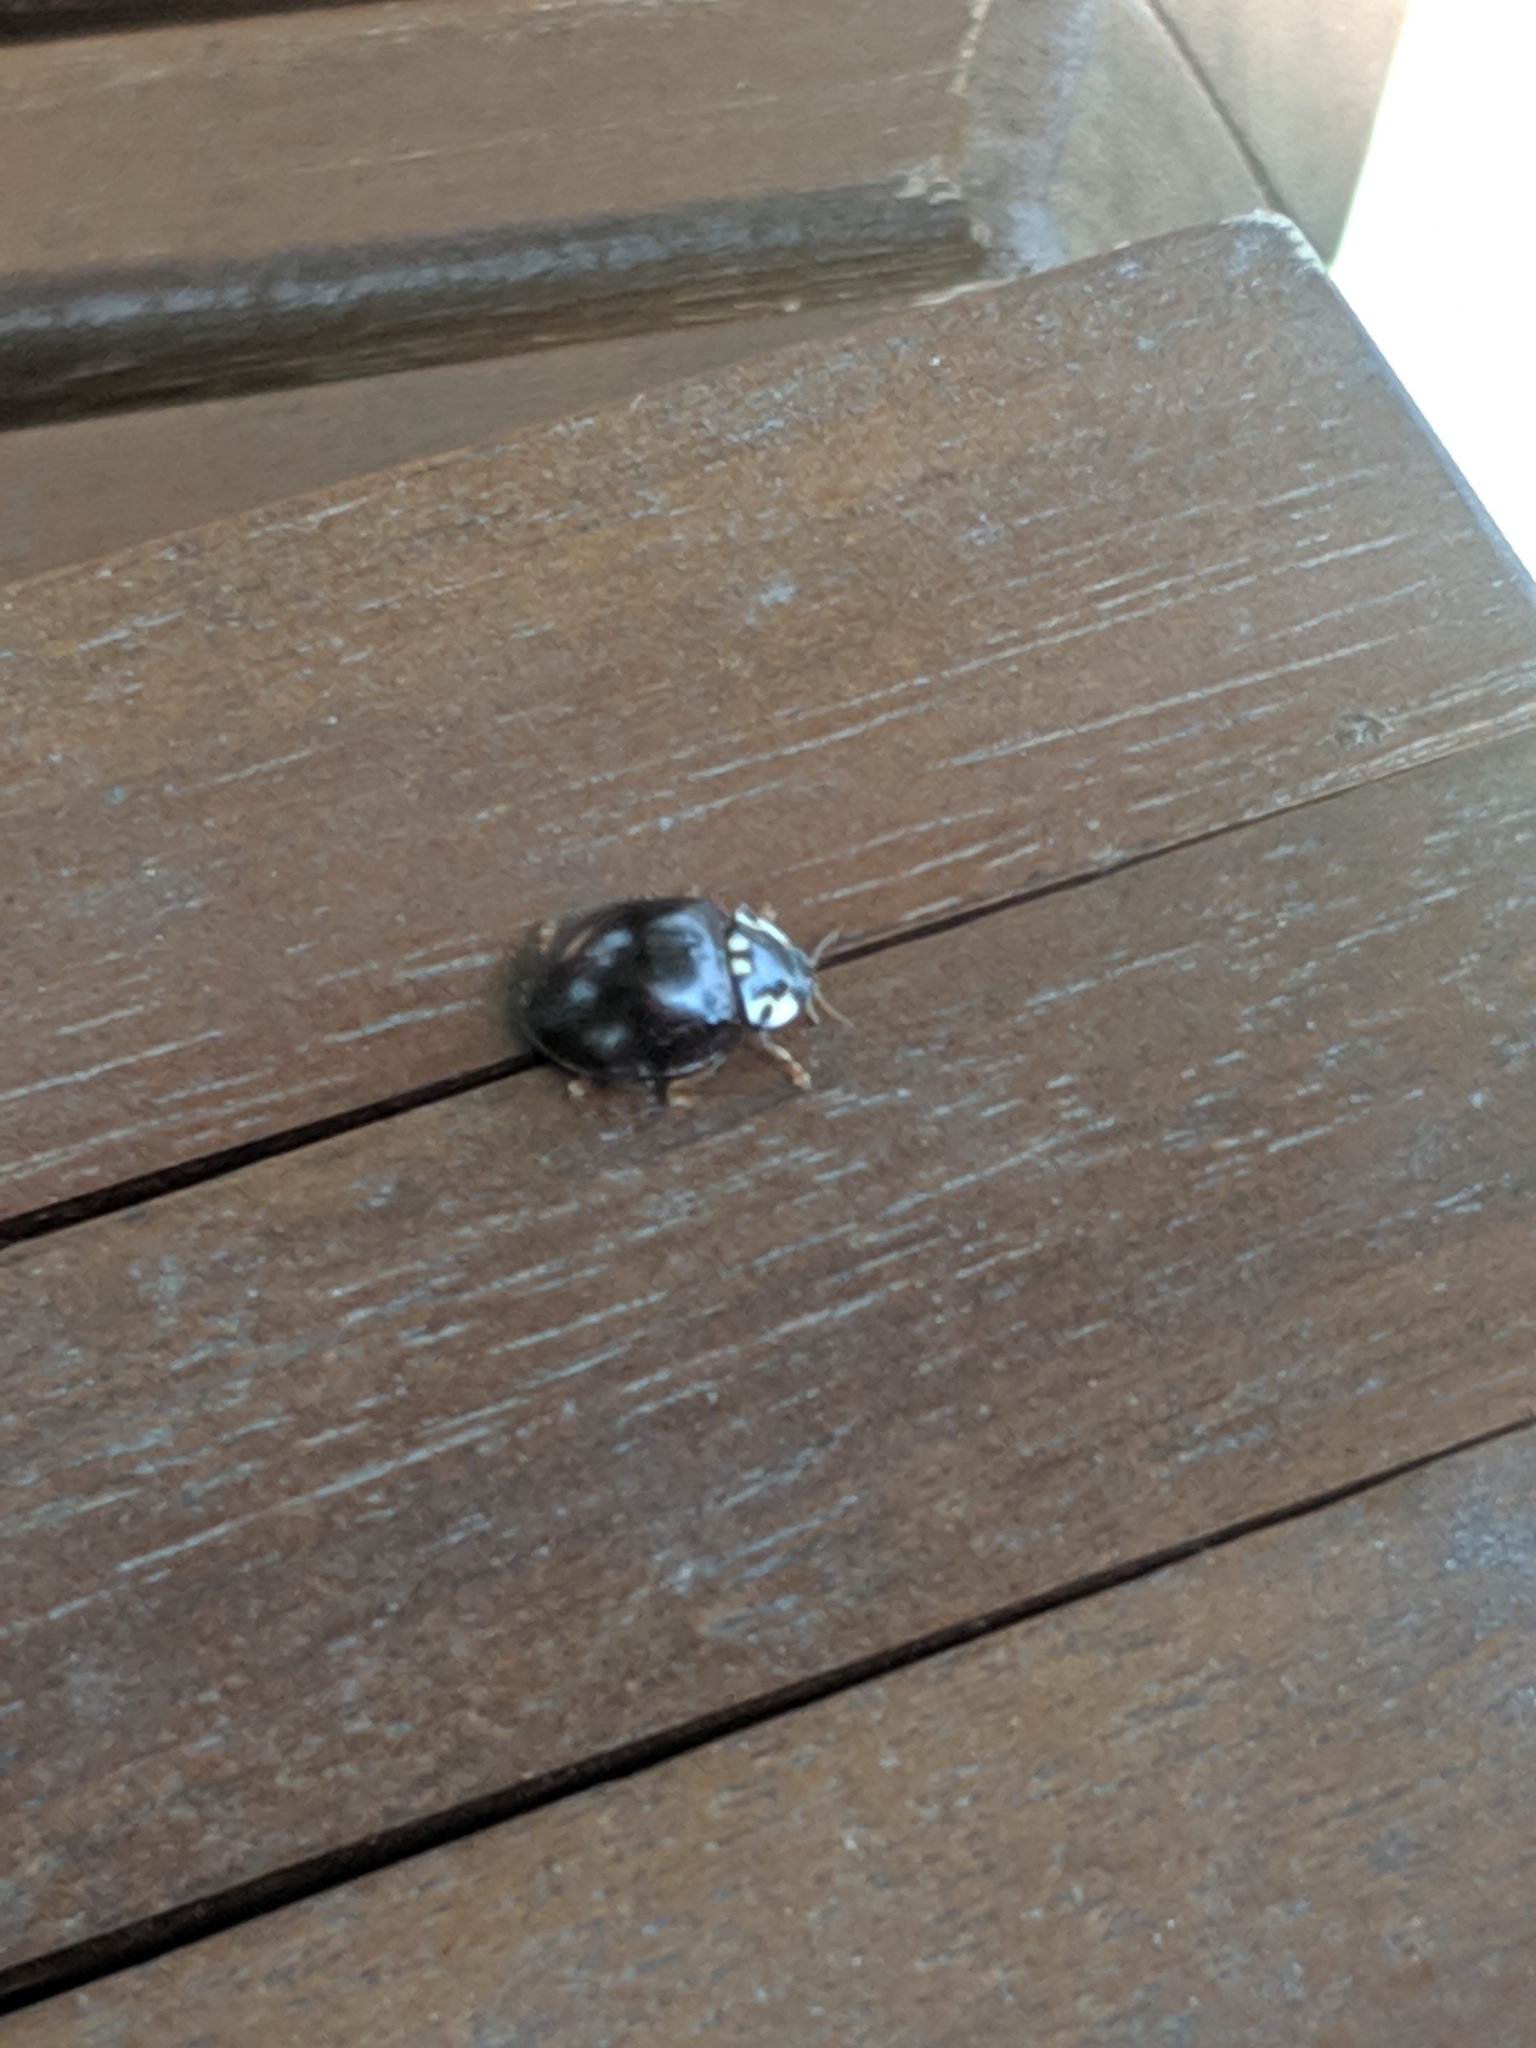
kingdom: Animalia
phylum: Arthropoda
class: Insecta
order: Coleoptera
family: Coccinellidae
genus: Anatis
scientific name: Anatis labiculata
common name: Fifteen-spotted lady beetle
